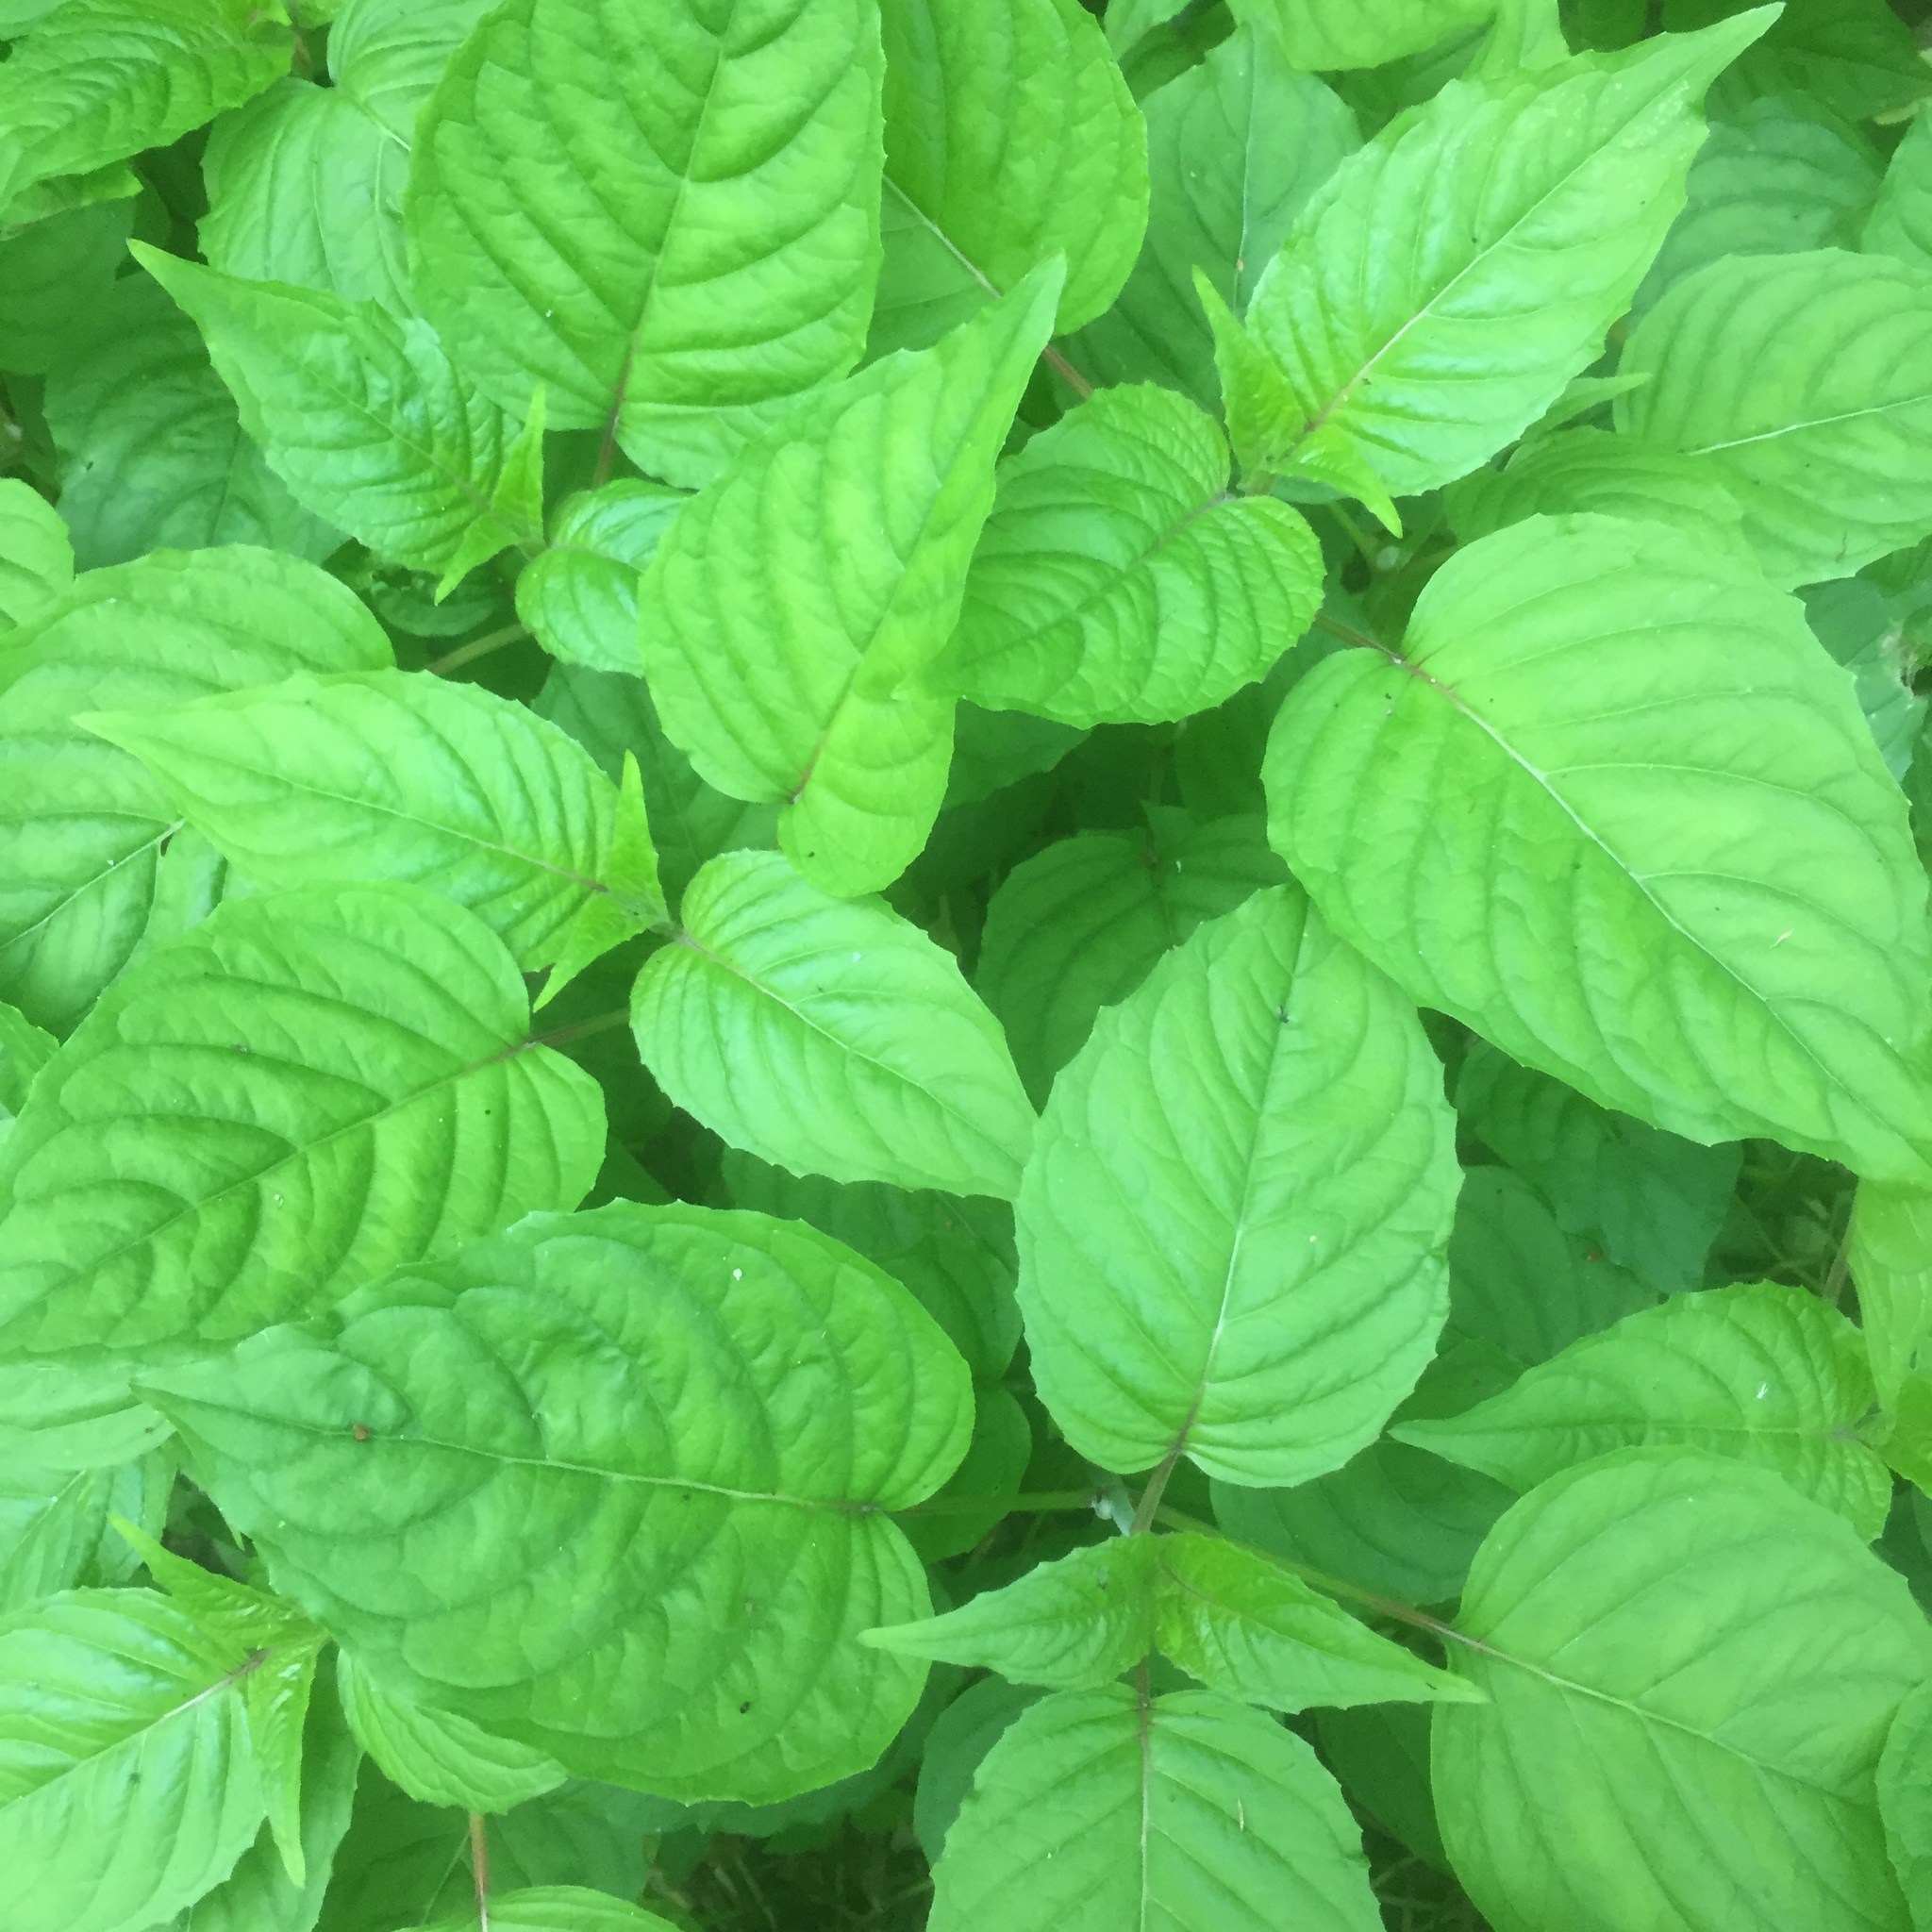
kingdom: Plantae
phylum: Tracheophyta
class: Magnoliopsida
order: Myrtales
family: Onagraceae
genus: Circaea
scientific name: Circaea lutetiana
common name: Enchanter's-nightshade
